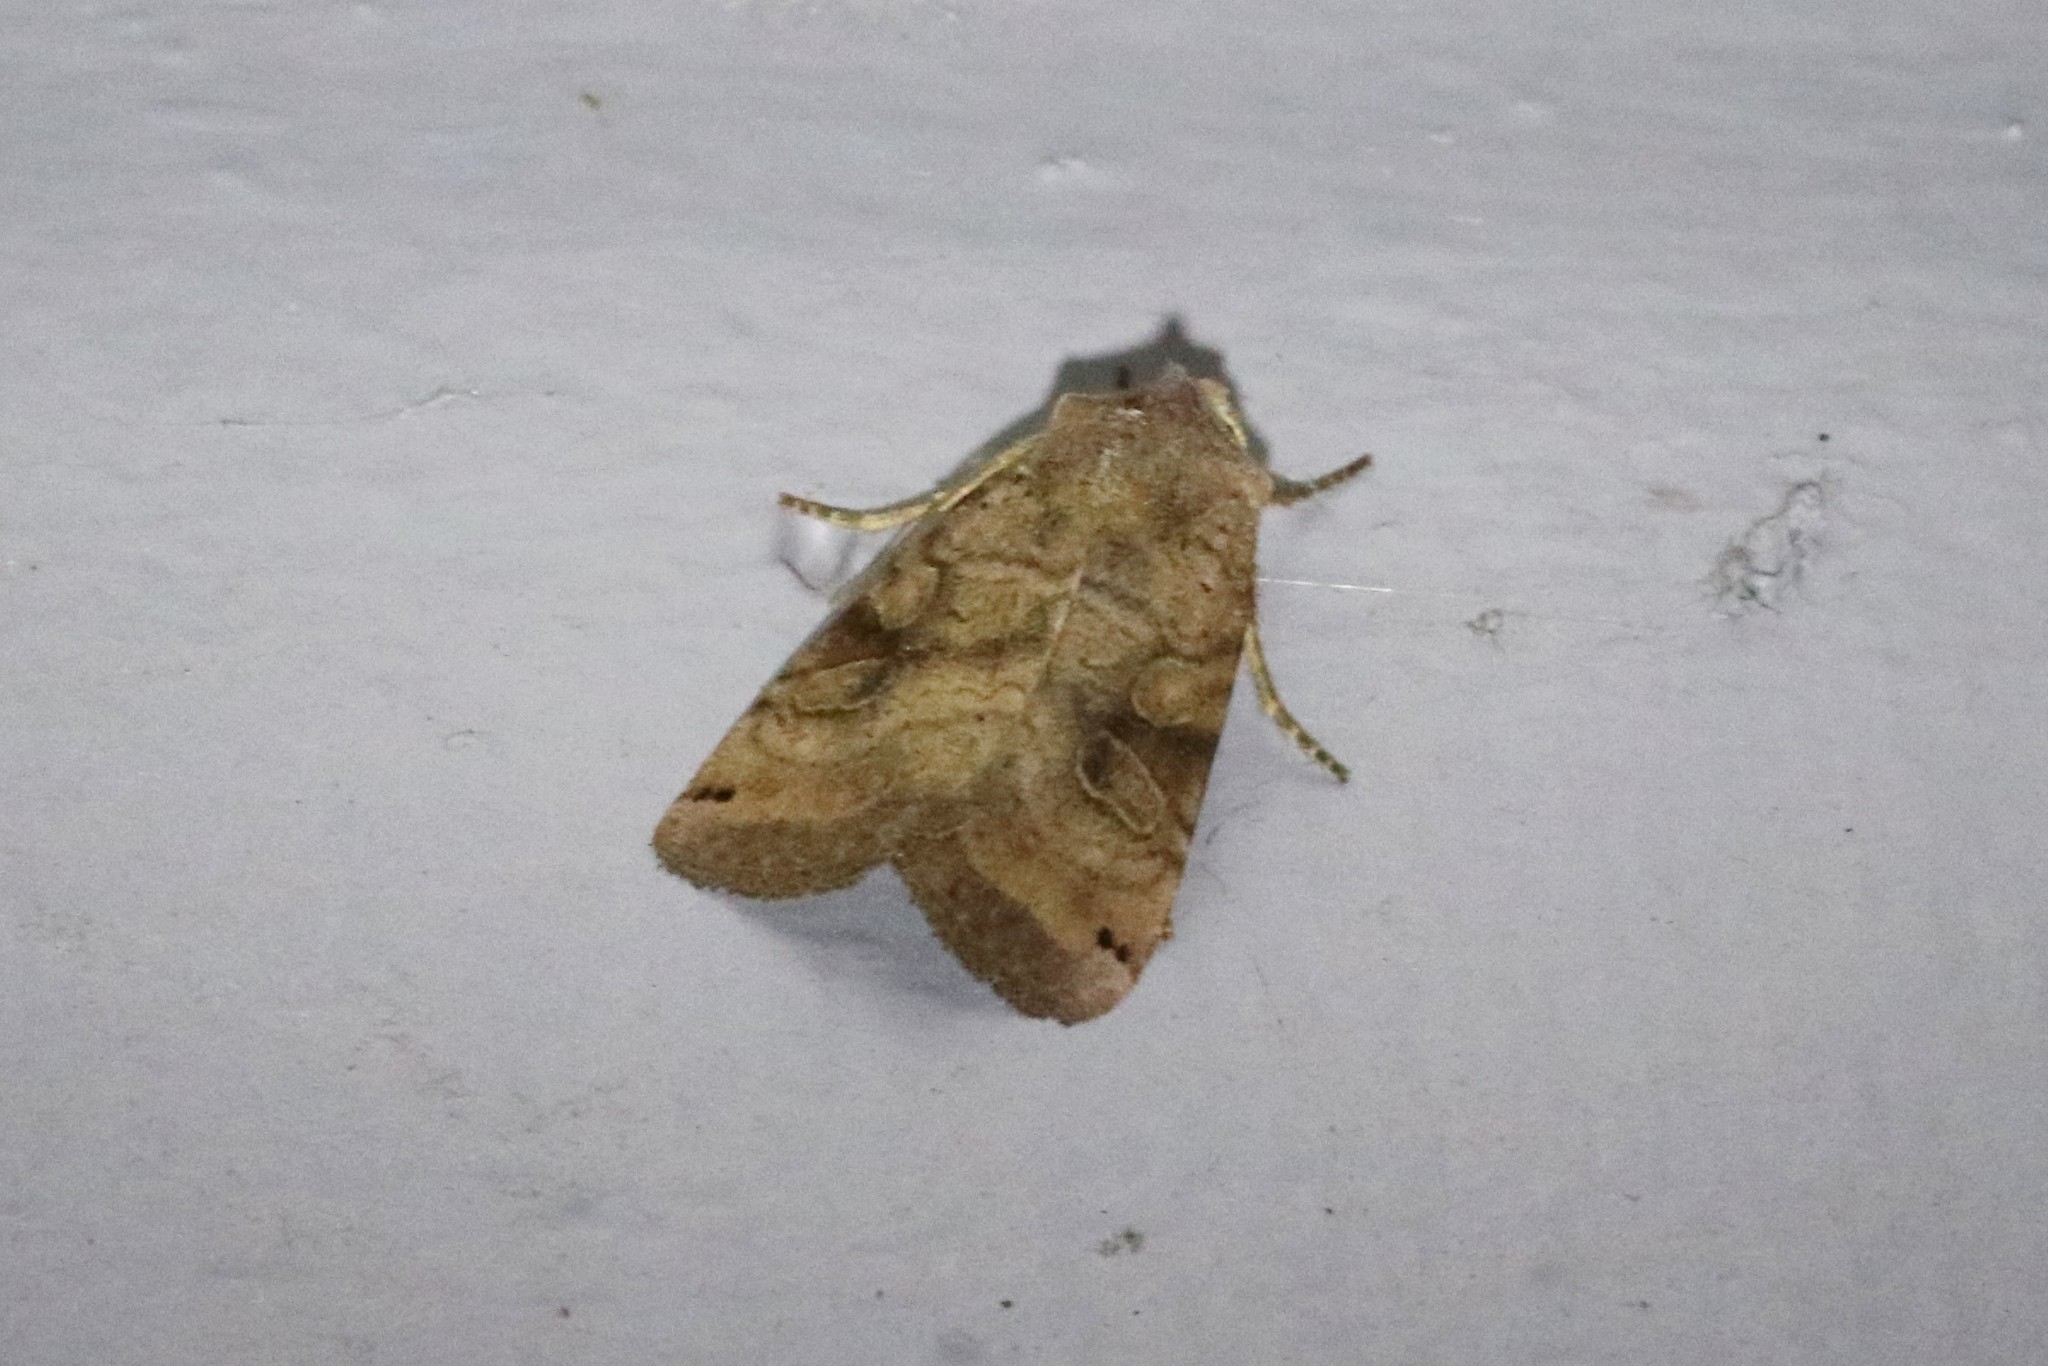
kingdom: Animalia
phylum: Arthropoda
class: Insecta
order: Lepidoptera
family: Noctuidae
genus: Xestia
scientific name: Xestia smithii
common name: Smith's dart
